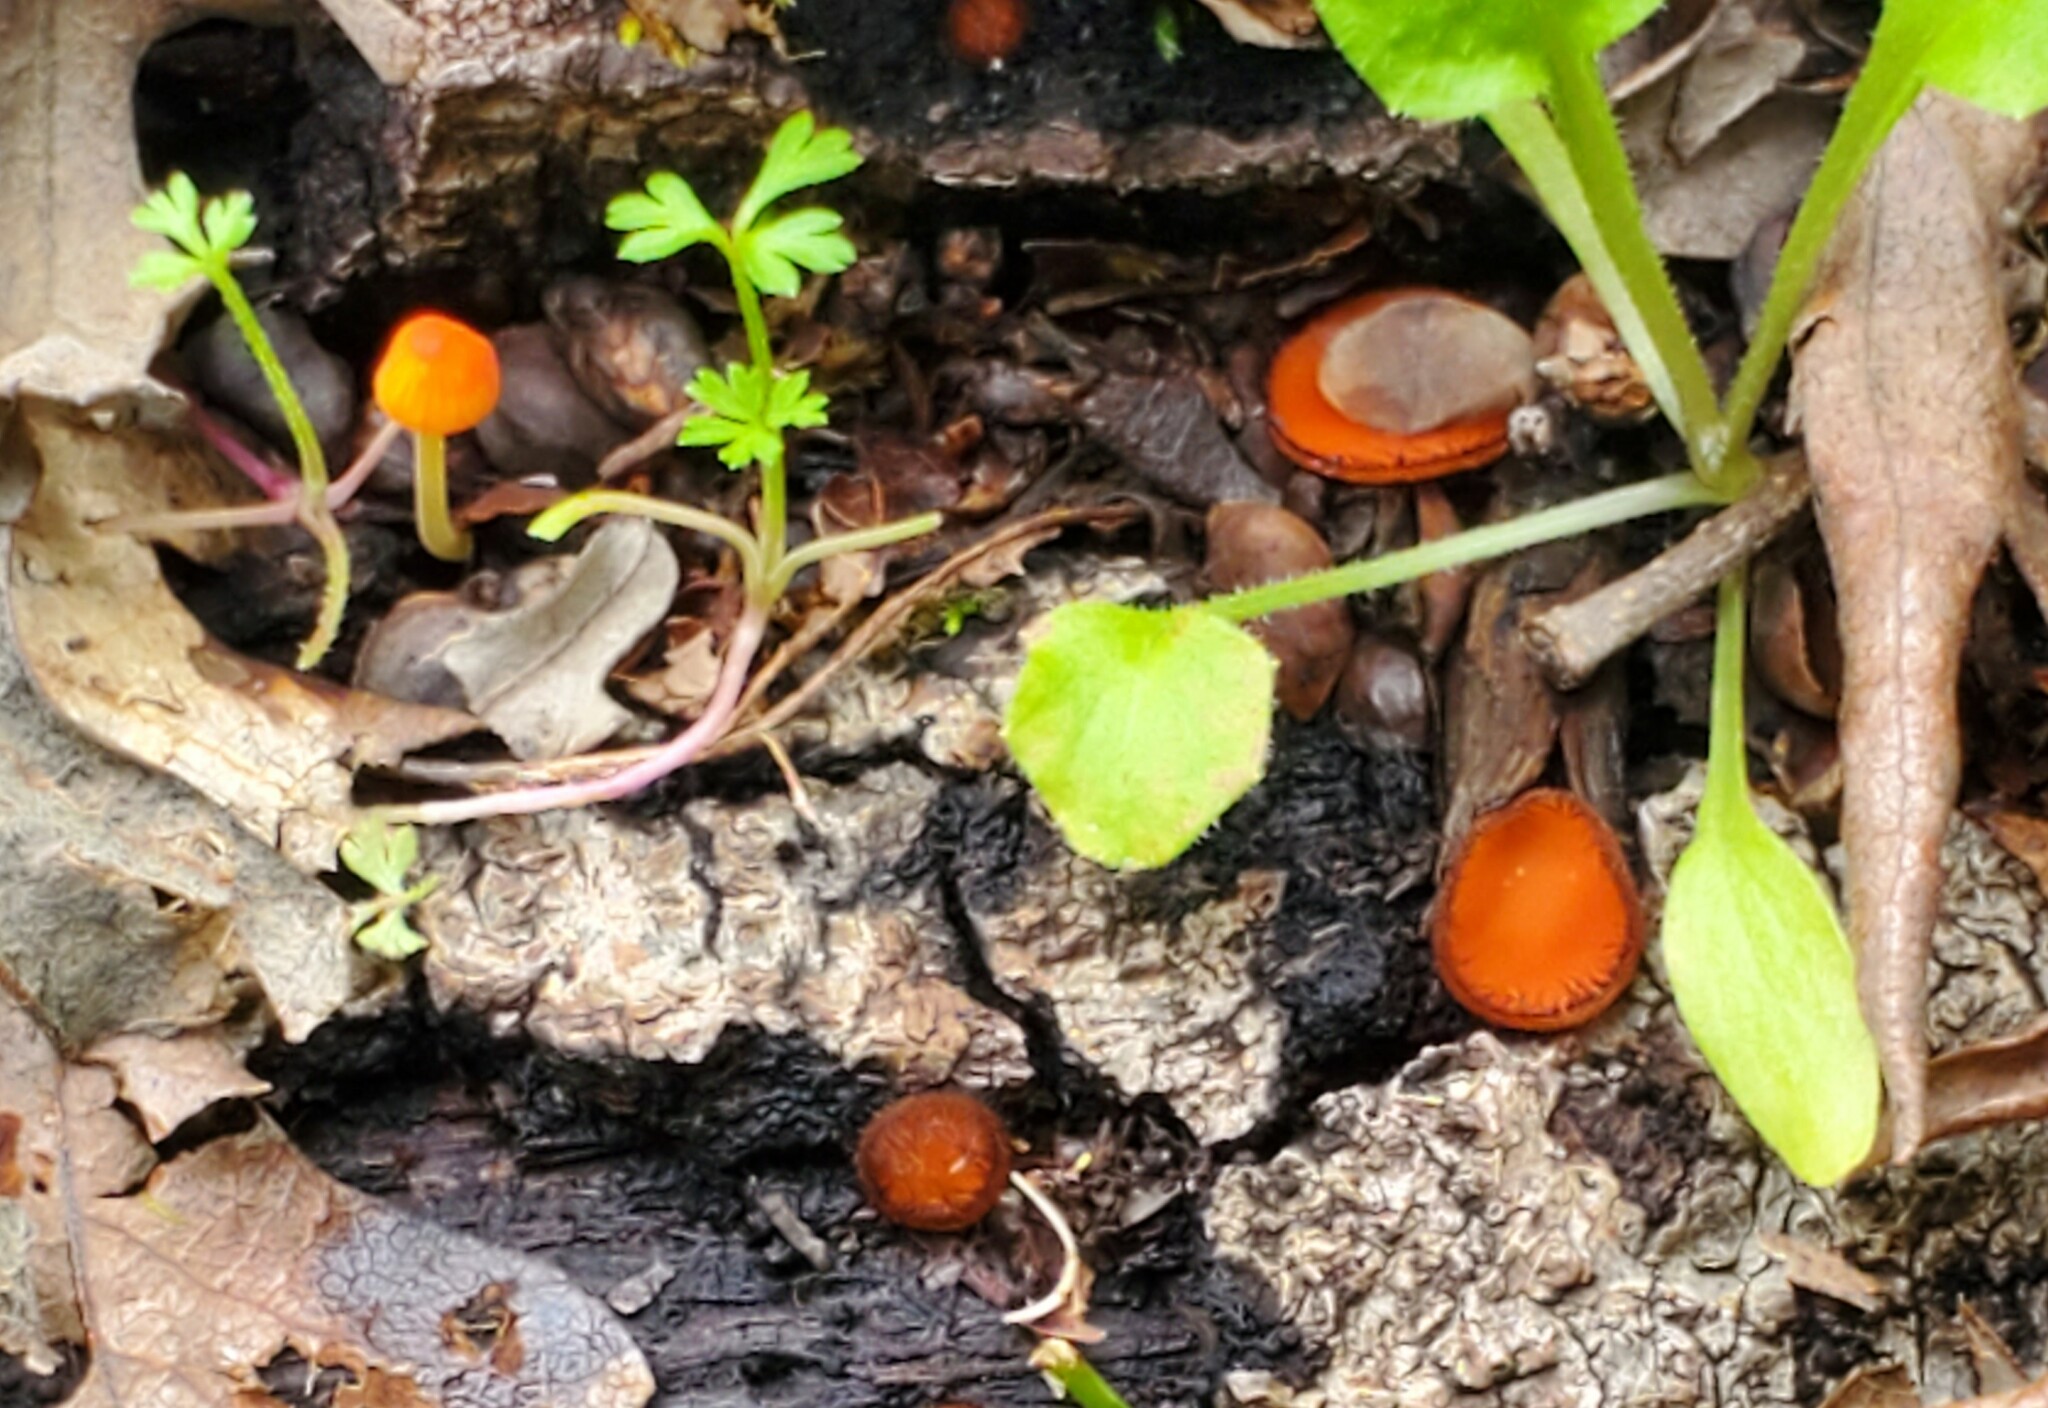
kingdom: Fungi
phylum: Basidiomycota
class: Agaricomycetes
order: Agaricales
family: Mycenaceae
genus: Mycena
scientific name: Mycena acicula
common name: Orange bonnet
